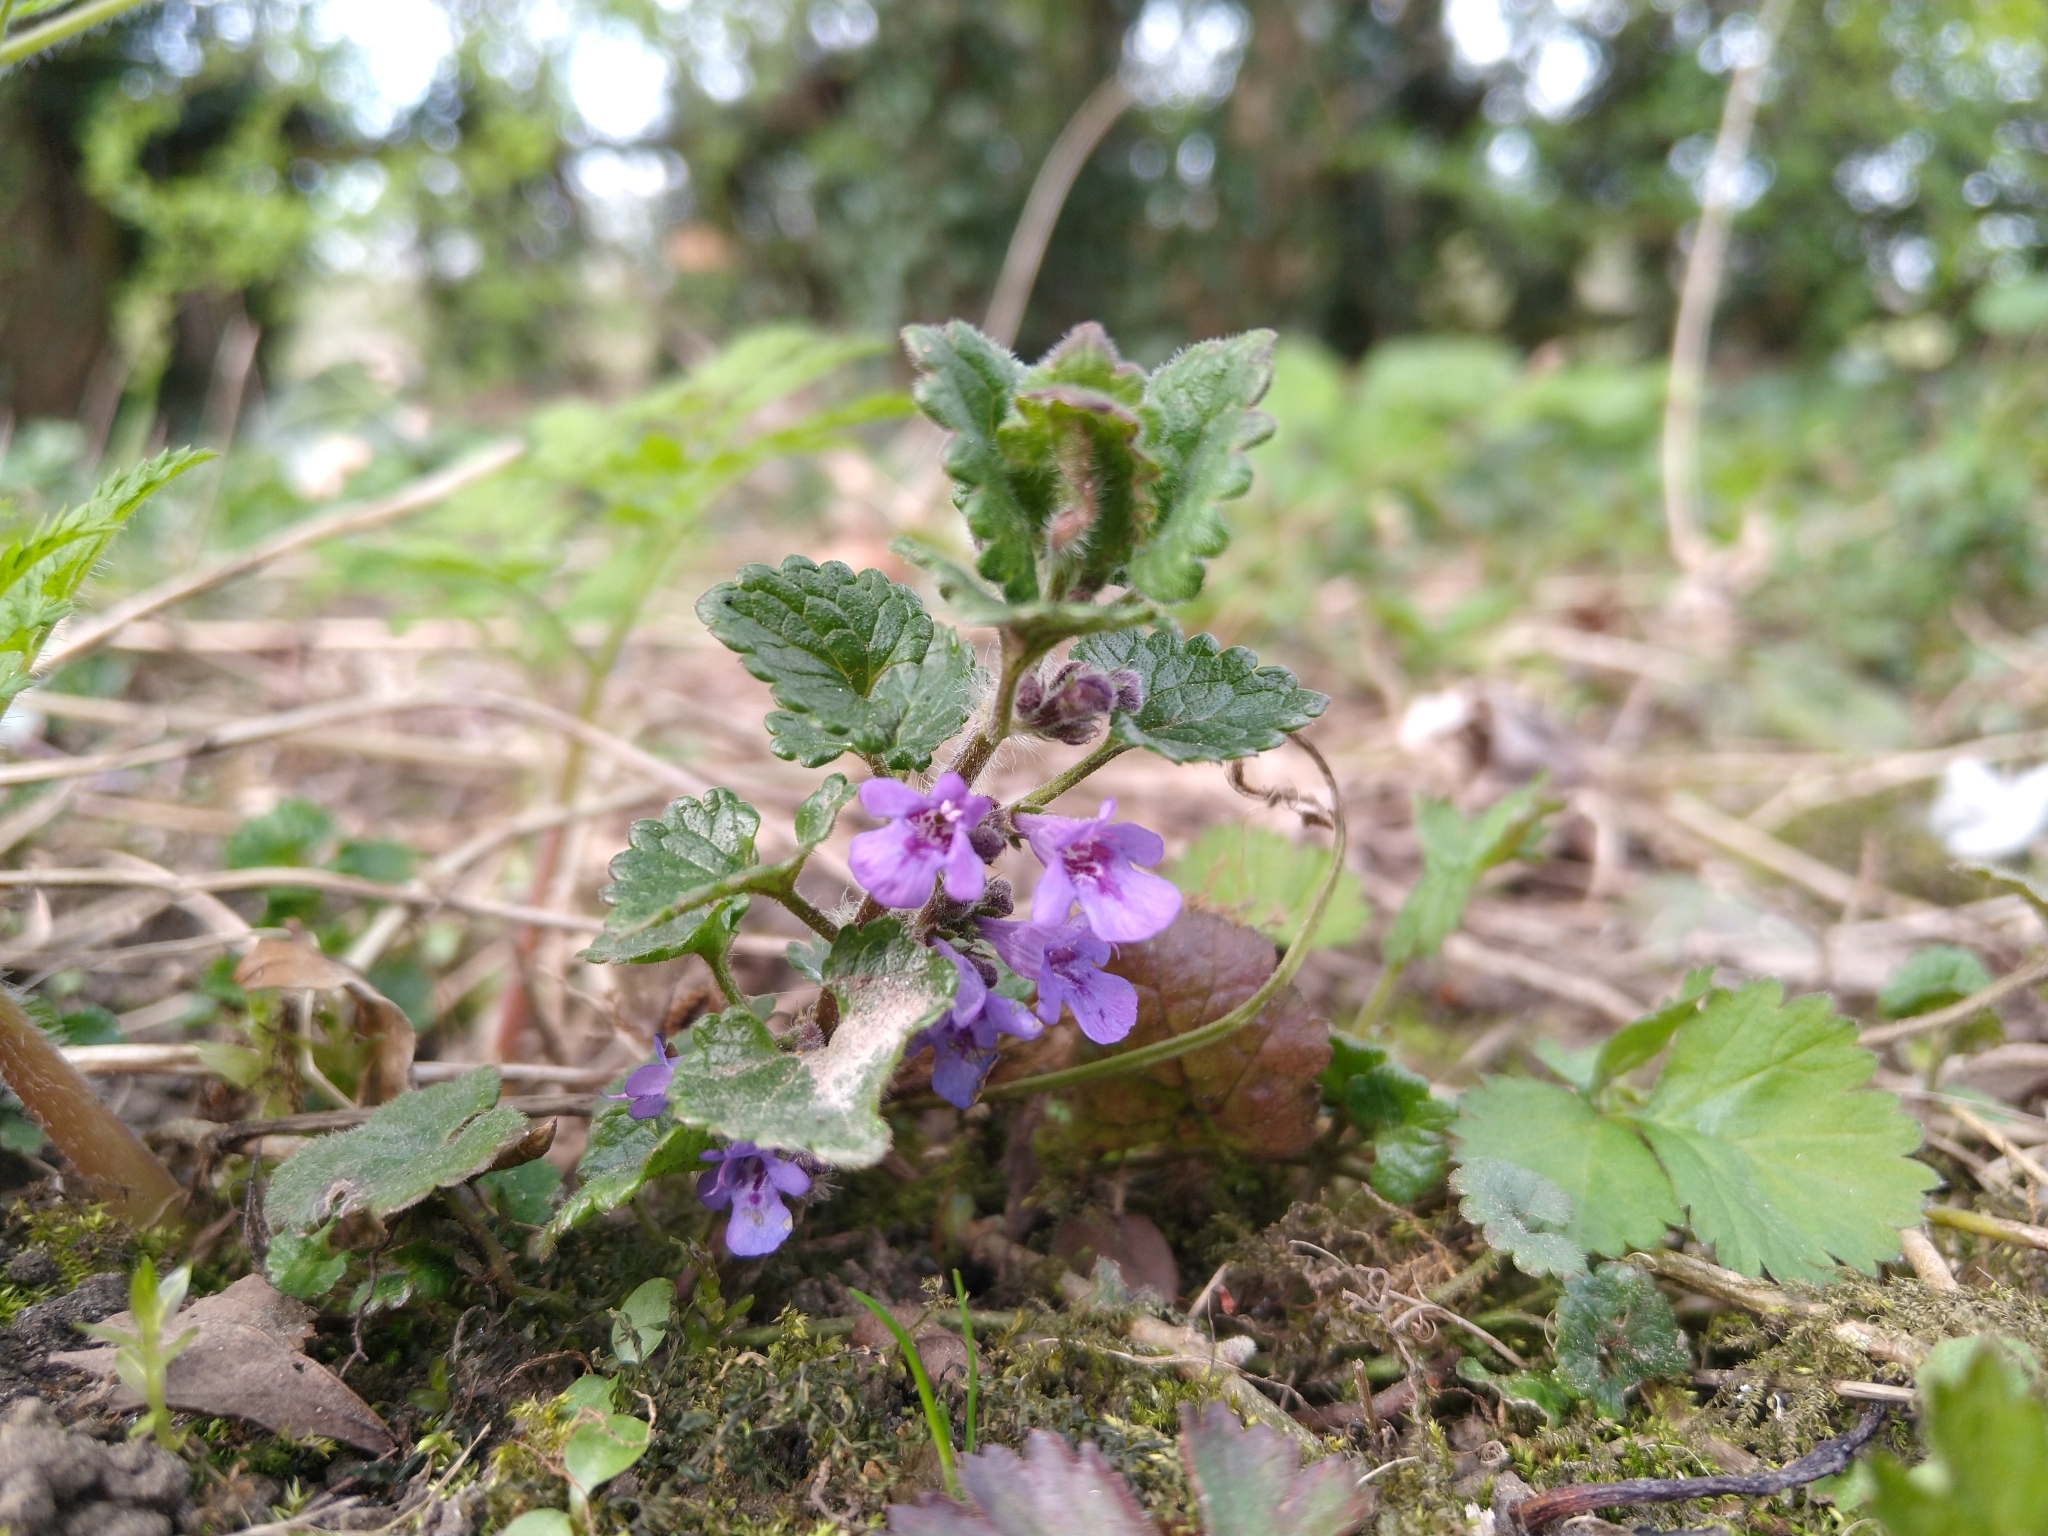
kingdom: Plantae
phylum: Tracheophyta
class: Magnoliopsida
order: Lamiales
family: Lamiaceae
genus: Glechoma
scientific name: Glechoma hederacea
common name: Ground ivy
